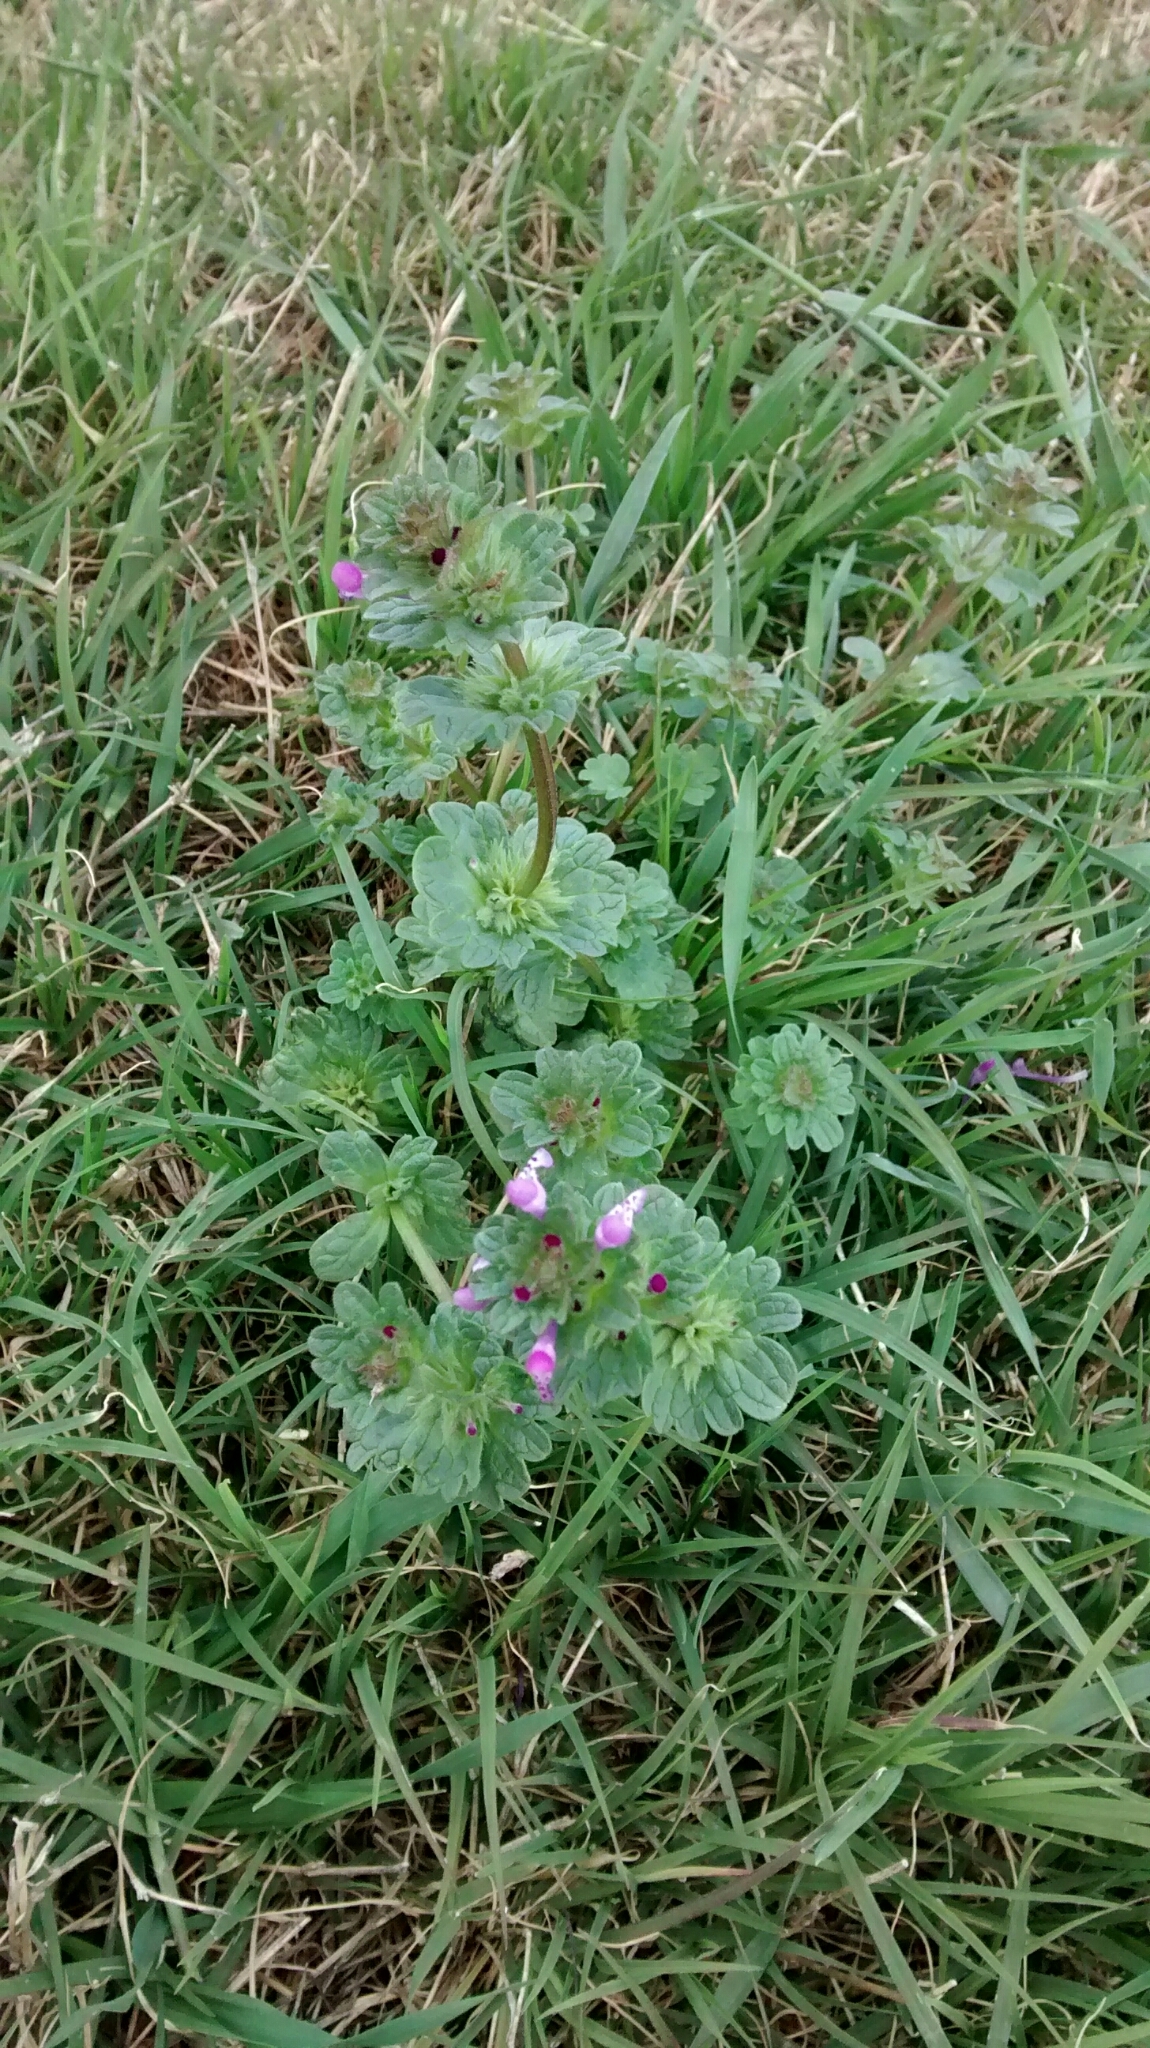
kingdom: Plantae
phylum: Tracheophyta
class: Magnoliopsida
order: Lamiales
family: Lamiaceae
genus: Lamium
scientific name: Lamium amplexicaule
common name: Henbit dead-nettle
